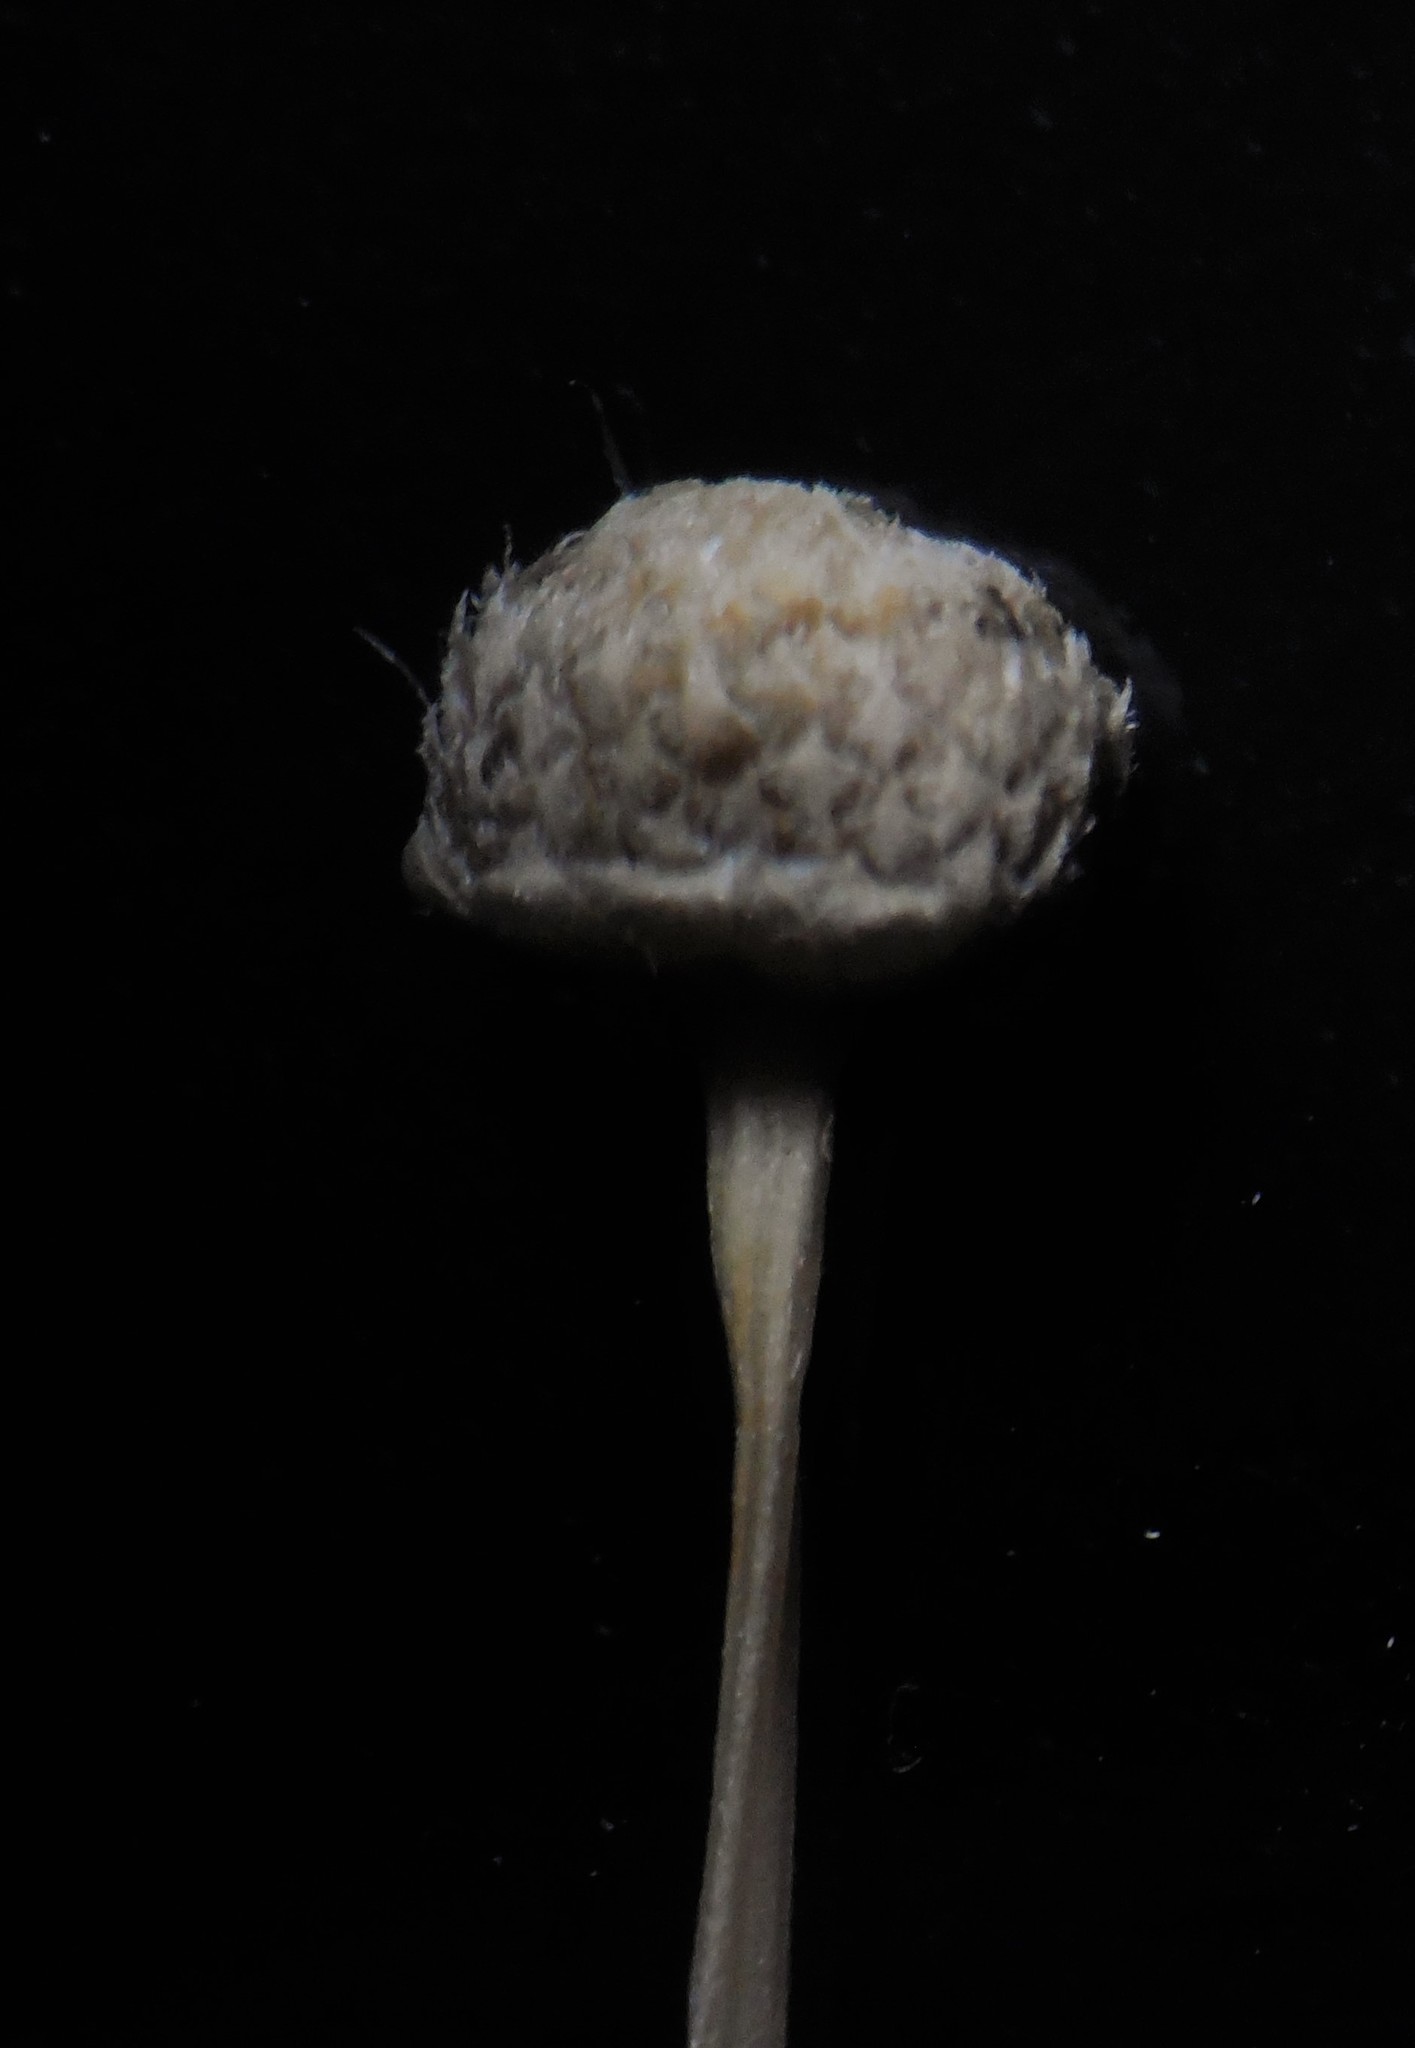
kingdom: Plantae
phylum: Tracheophyta
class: Liliopsida
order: Poales
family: Eriocaulaceae
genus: Eriocaulon
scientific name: Eriocaulon thwaitesii
